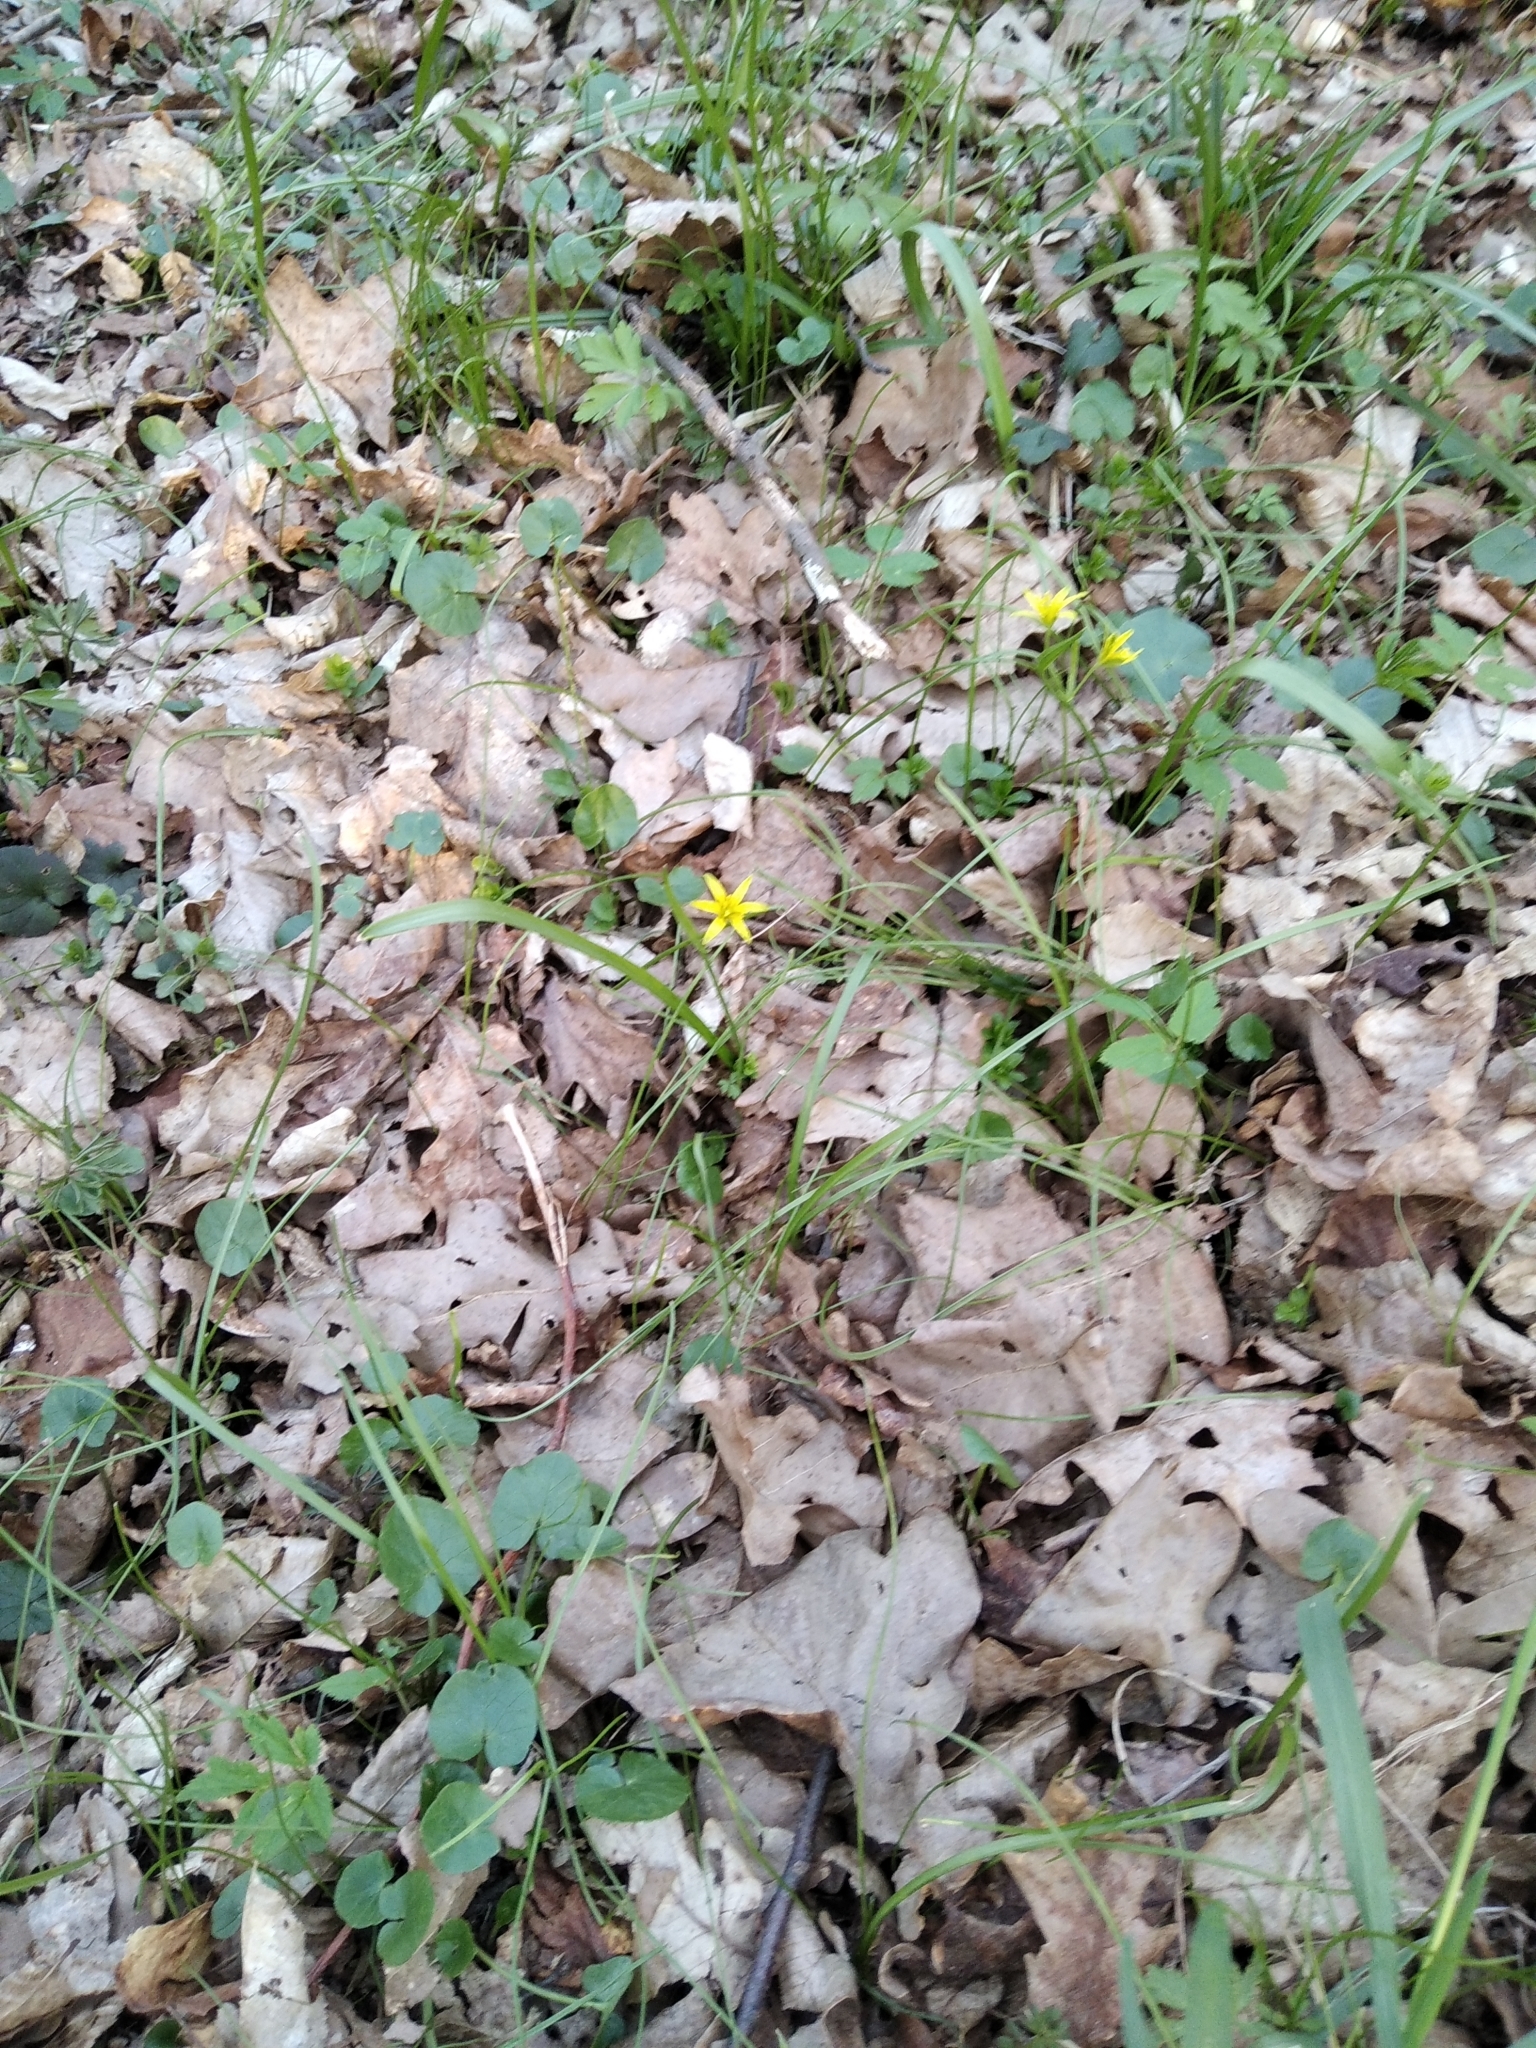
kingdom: Plantae
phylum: Tracheophyta
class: Liliopsida
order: Liliales
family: Liliaceae
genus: Gagea
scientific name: Gagea lutea
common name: Yellow star-of-bethlehem
